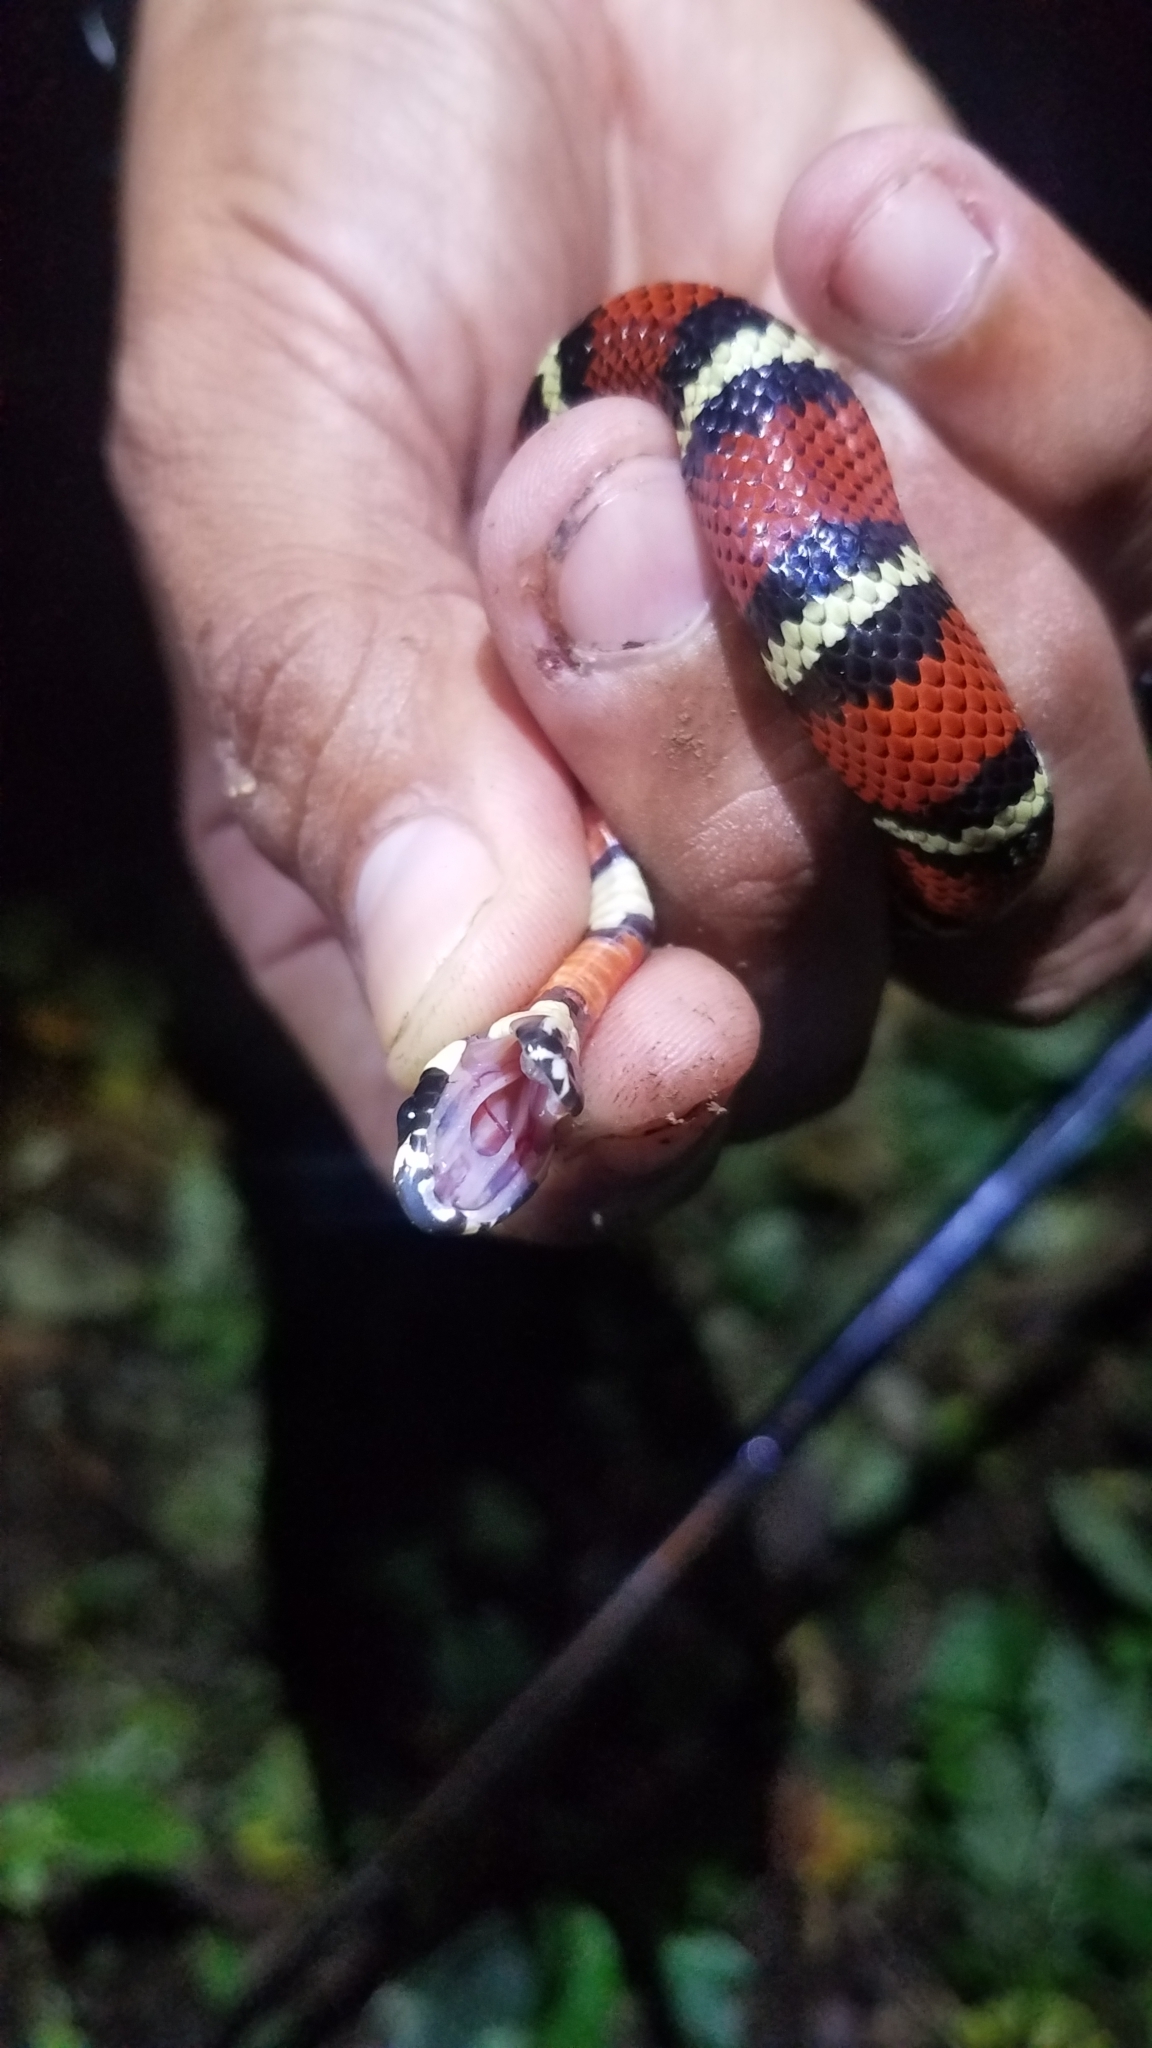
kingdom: Animalia
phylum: Chordata
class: Squamata
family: Colubridae
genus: Lampropeltis
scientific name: Lampropeltis abnorma
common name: Honduran milk snake
